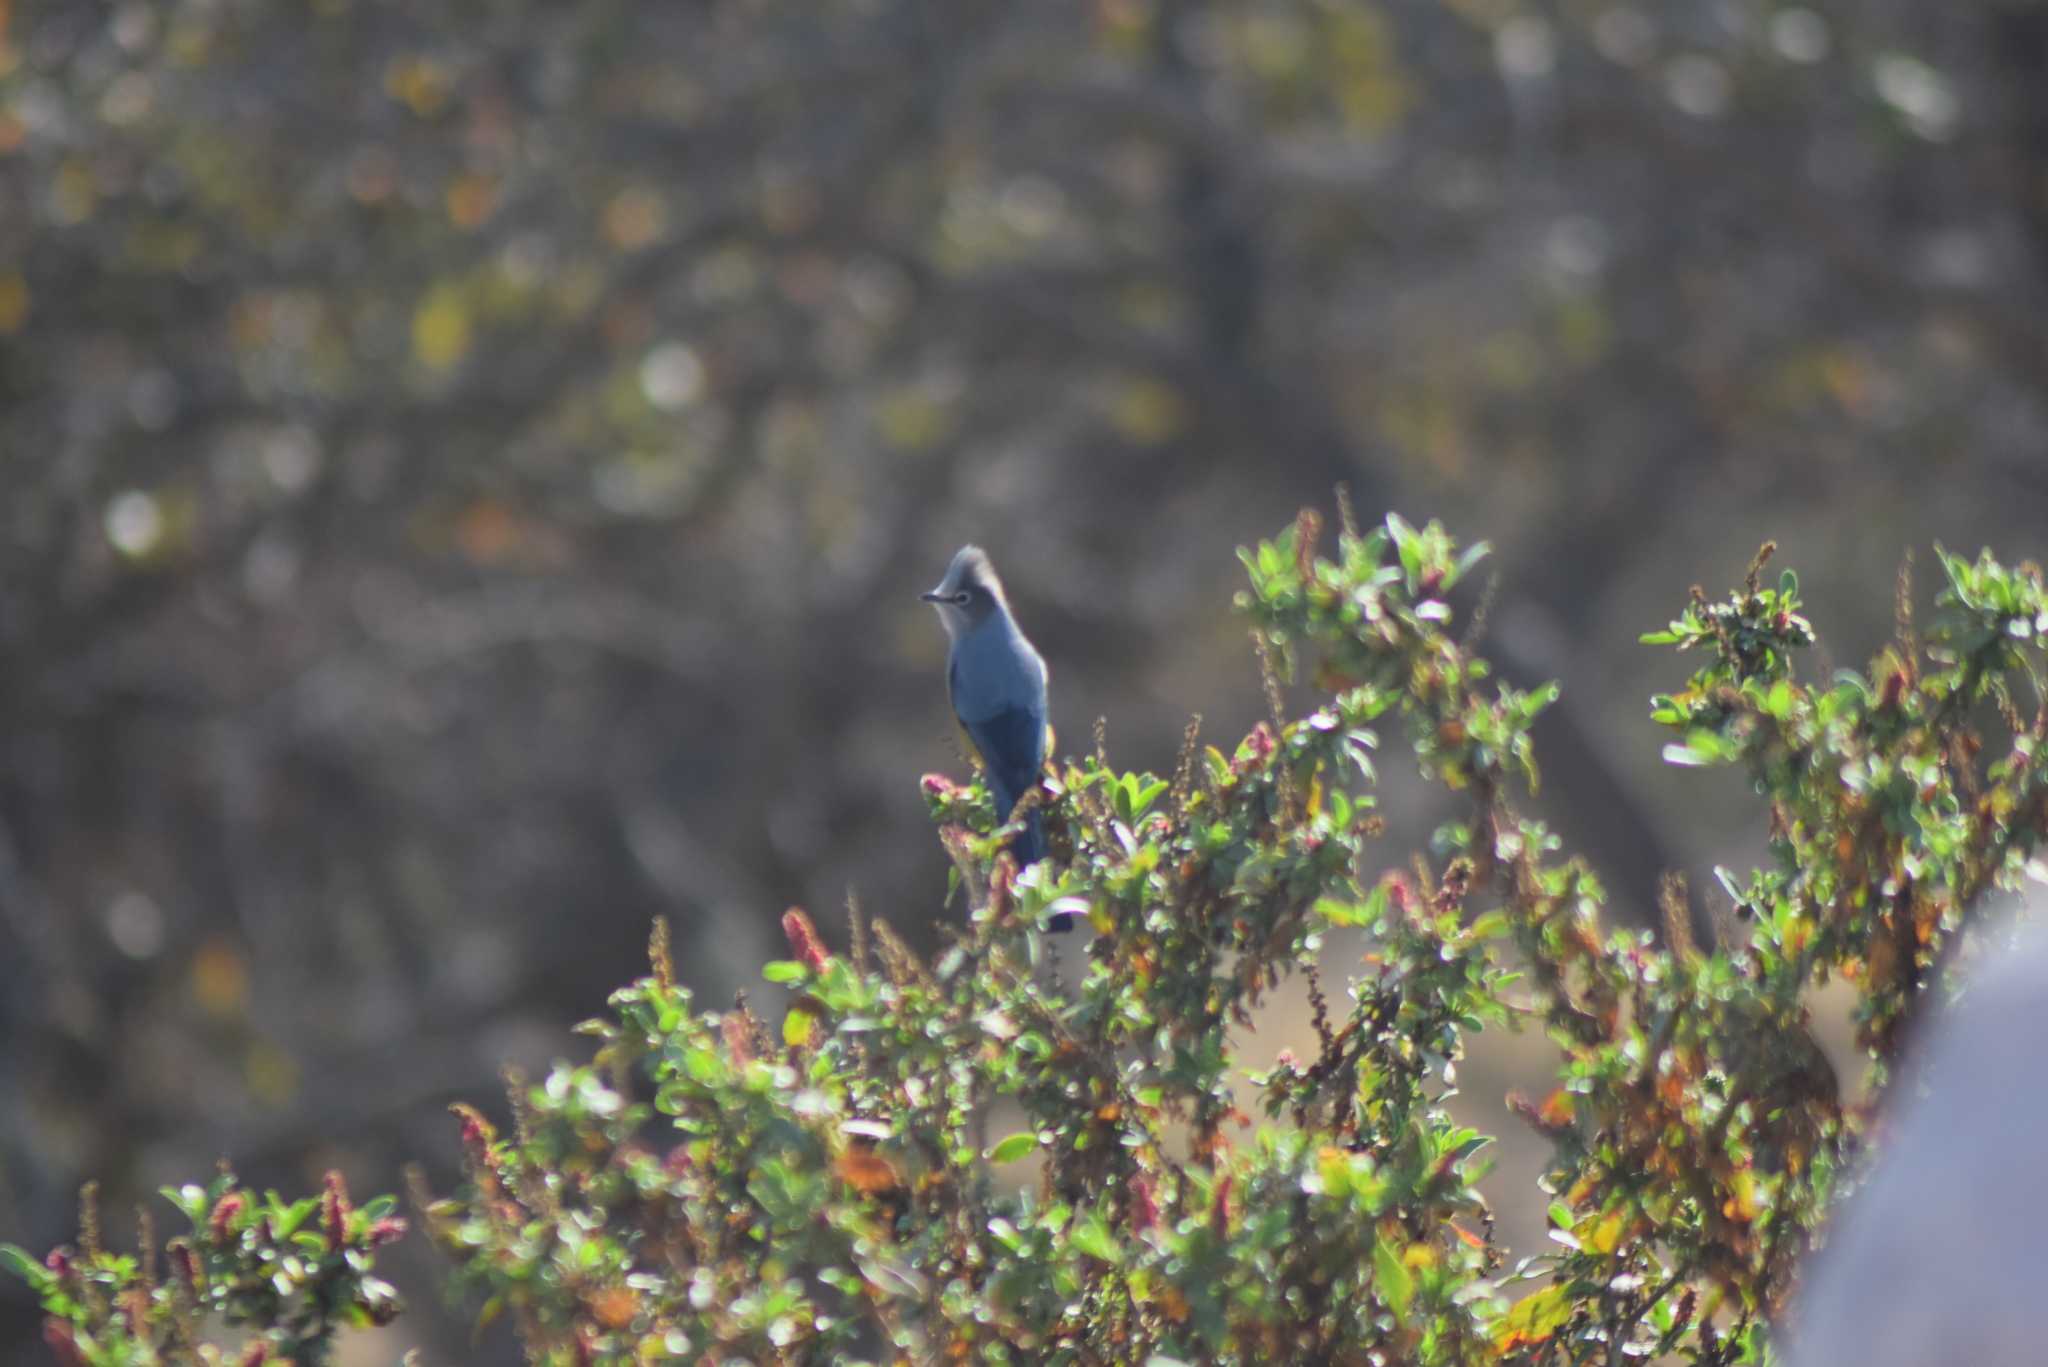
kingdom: Animalia
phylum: Chordata
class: Aves
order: Passeriformes
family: Ptilogonatidae
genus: Ptilogonys
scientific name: Ptilogonys cinereus
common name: Gray silky-flycatcher
